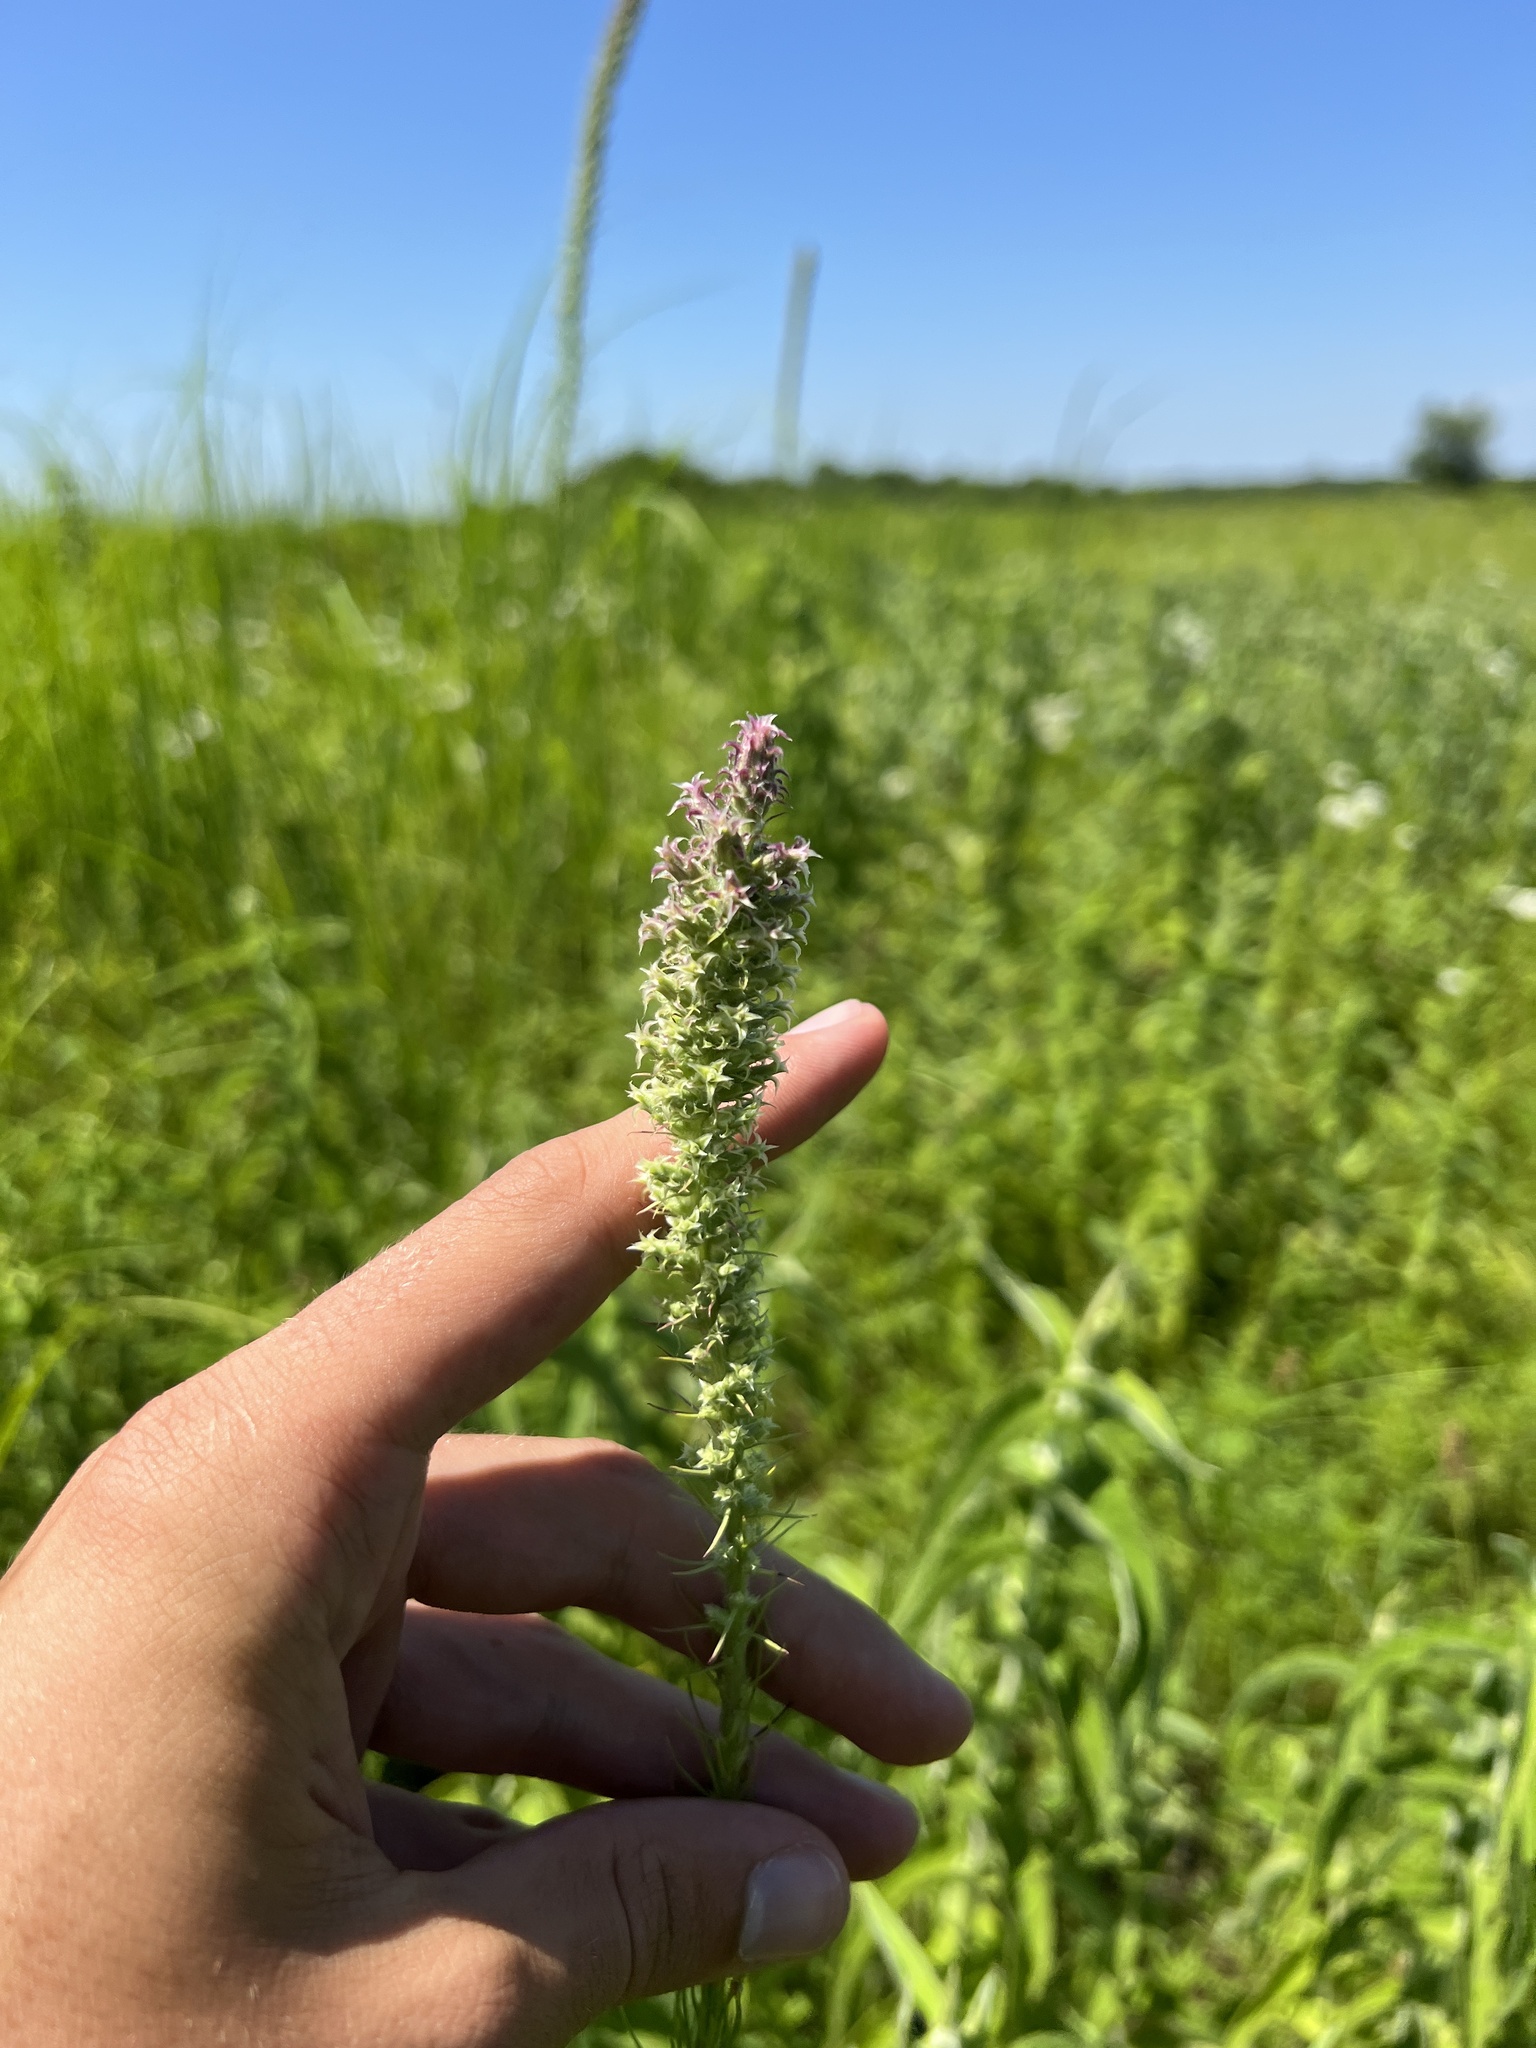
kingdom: Plantae
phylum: Tracheophyta
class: Magnoliopsida
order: Asterales
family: Asteraceae
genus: Liatris
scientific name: Liatris pycnostachya
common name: Cattail gayfeather
